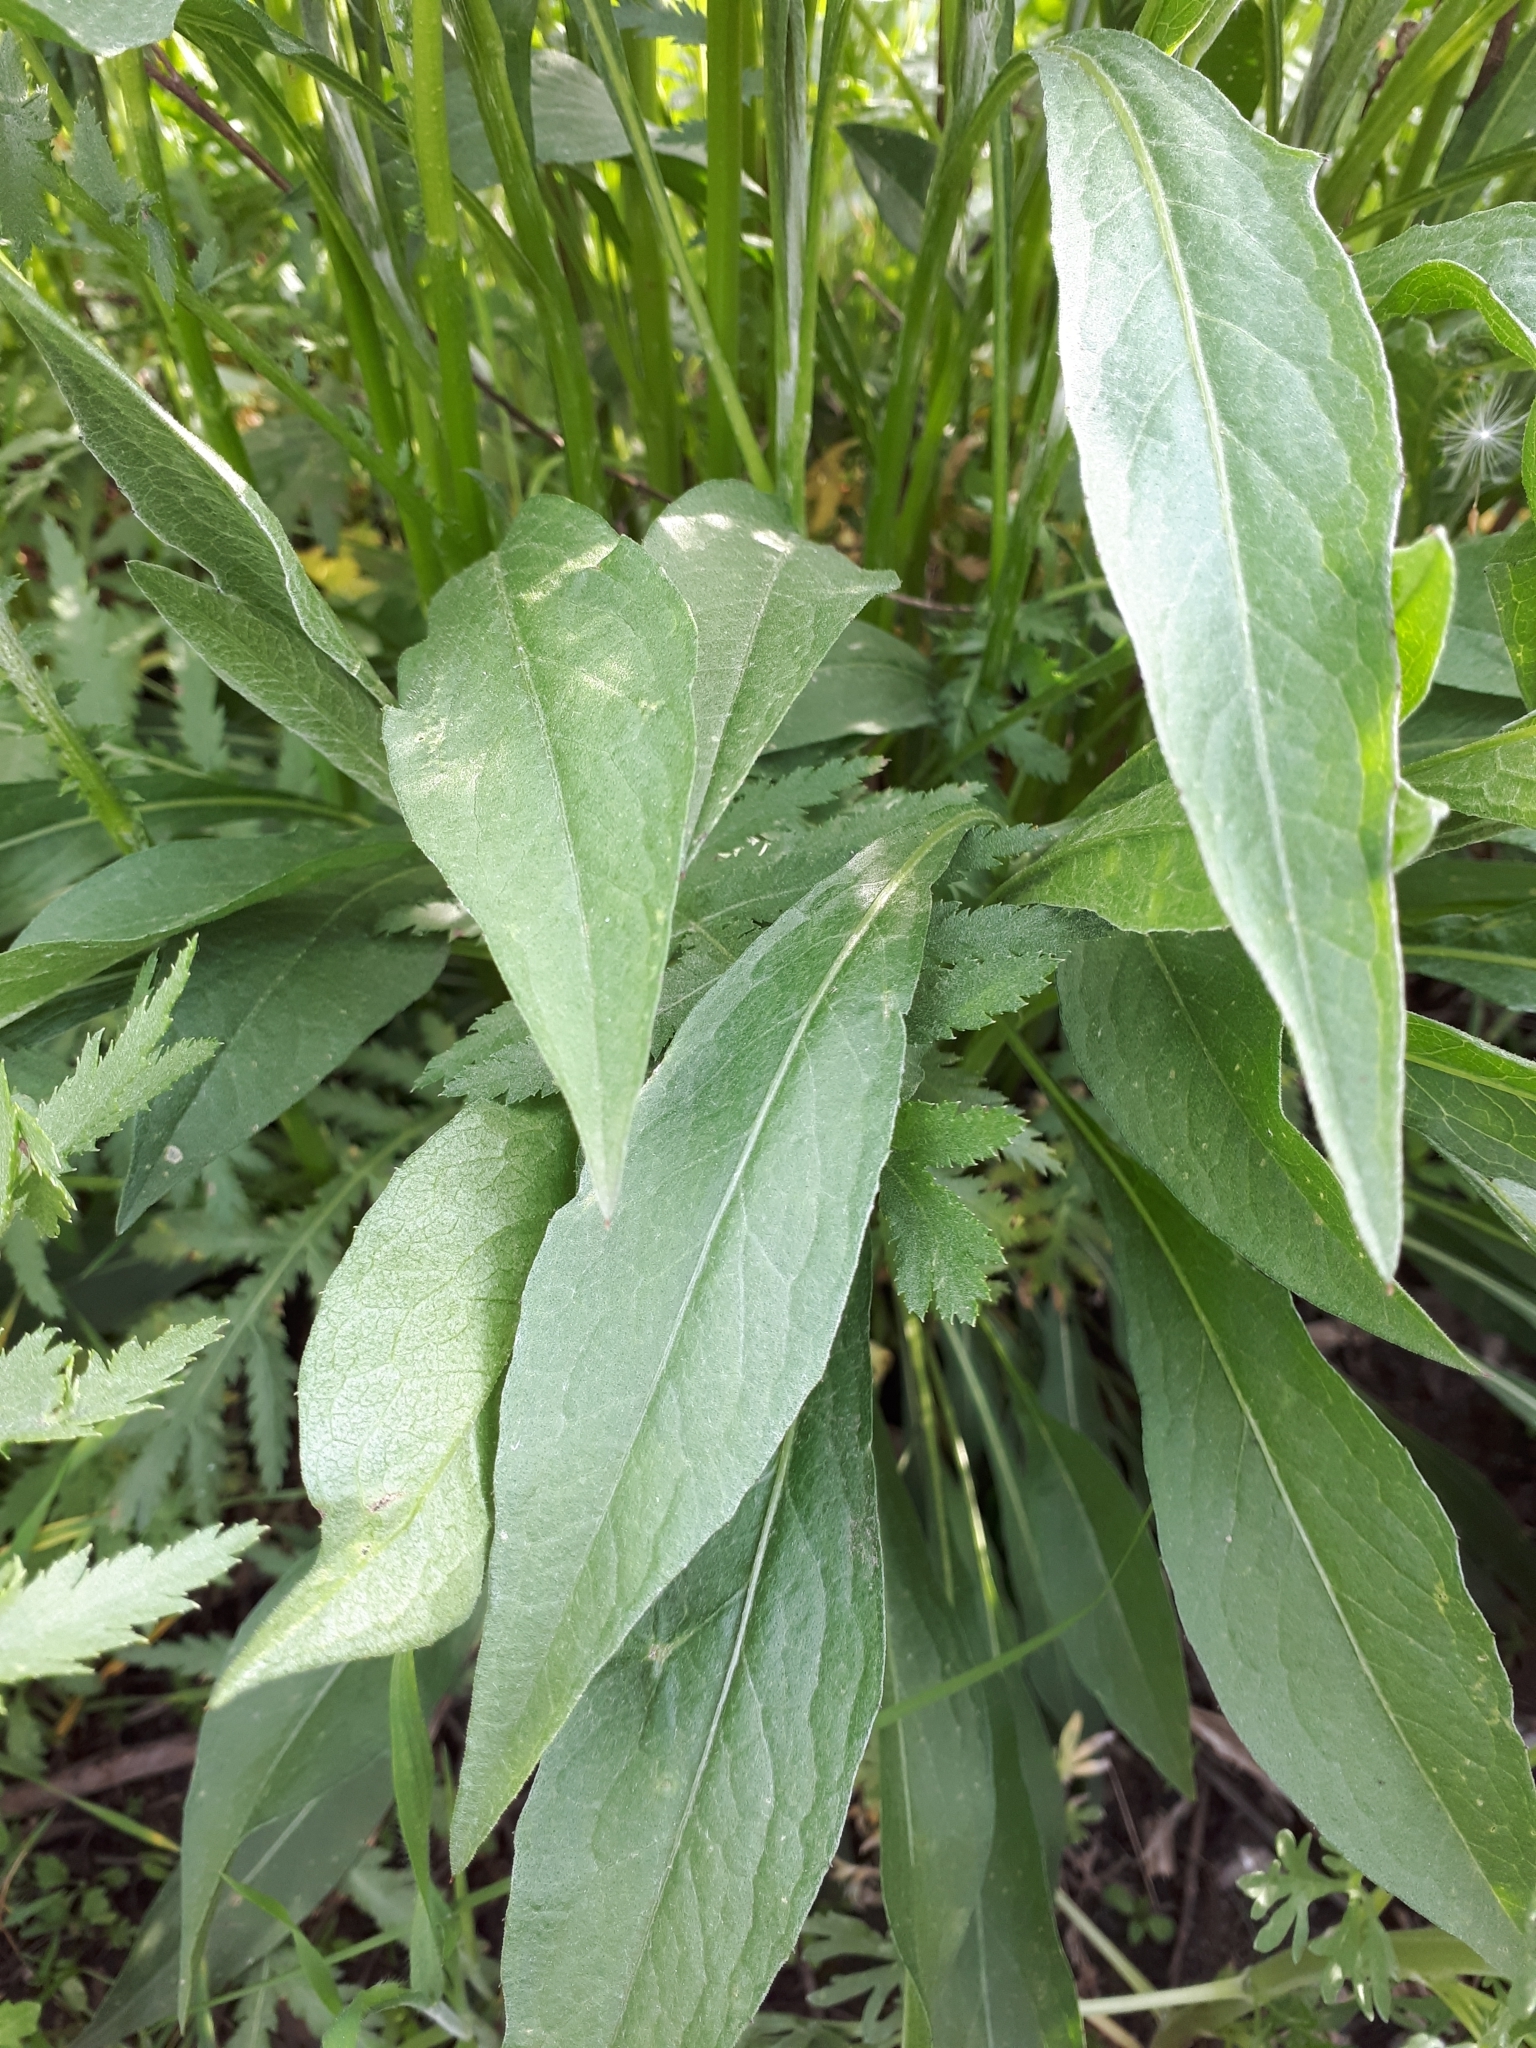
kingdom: Plantae
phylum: Tracheophyta
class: Magnoliopsida
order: Asterales
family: Asteraceae
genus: Centaurea
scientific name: Centaurea jacea
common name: Brown knapweed
